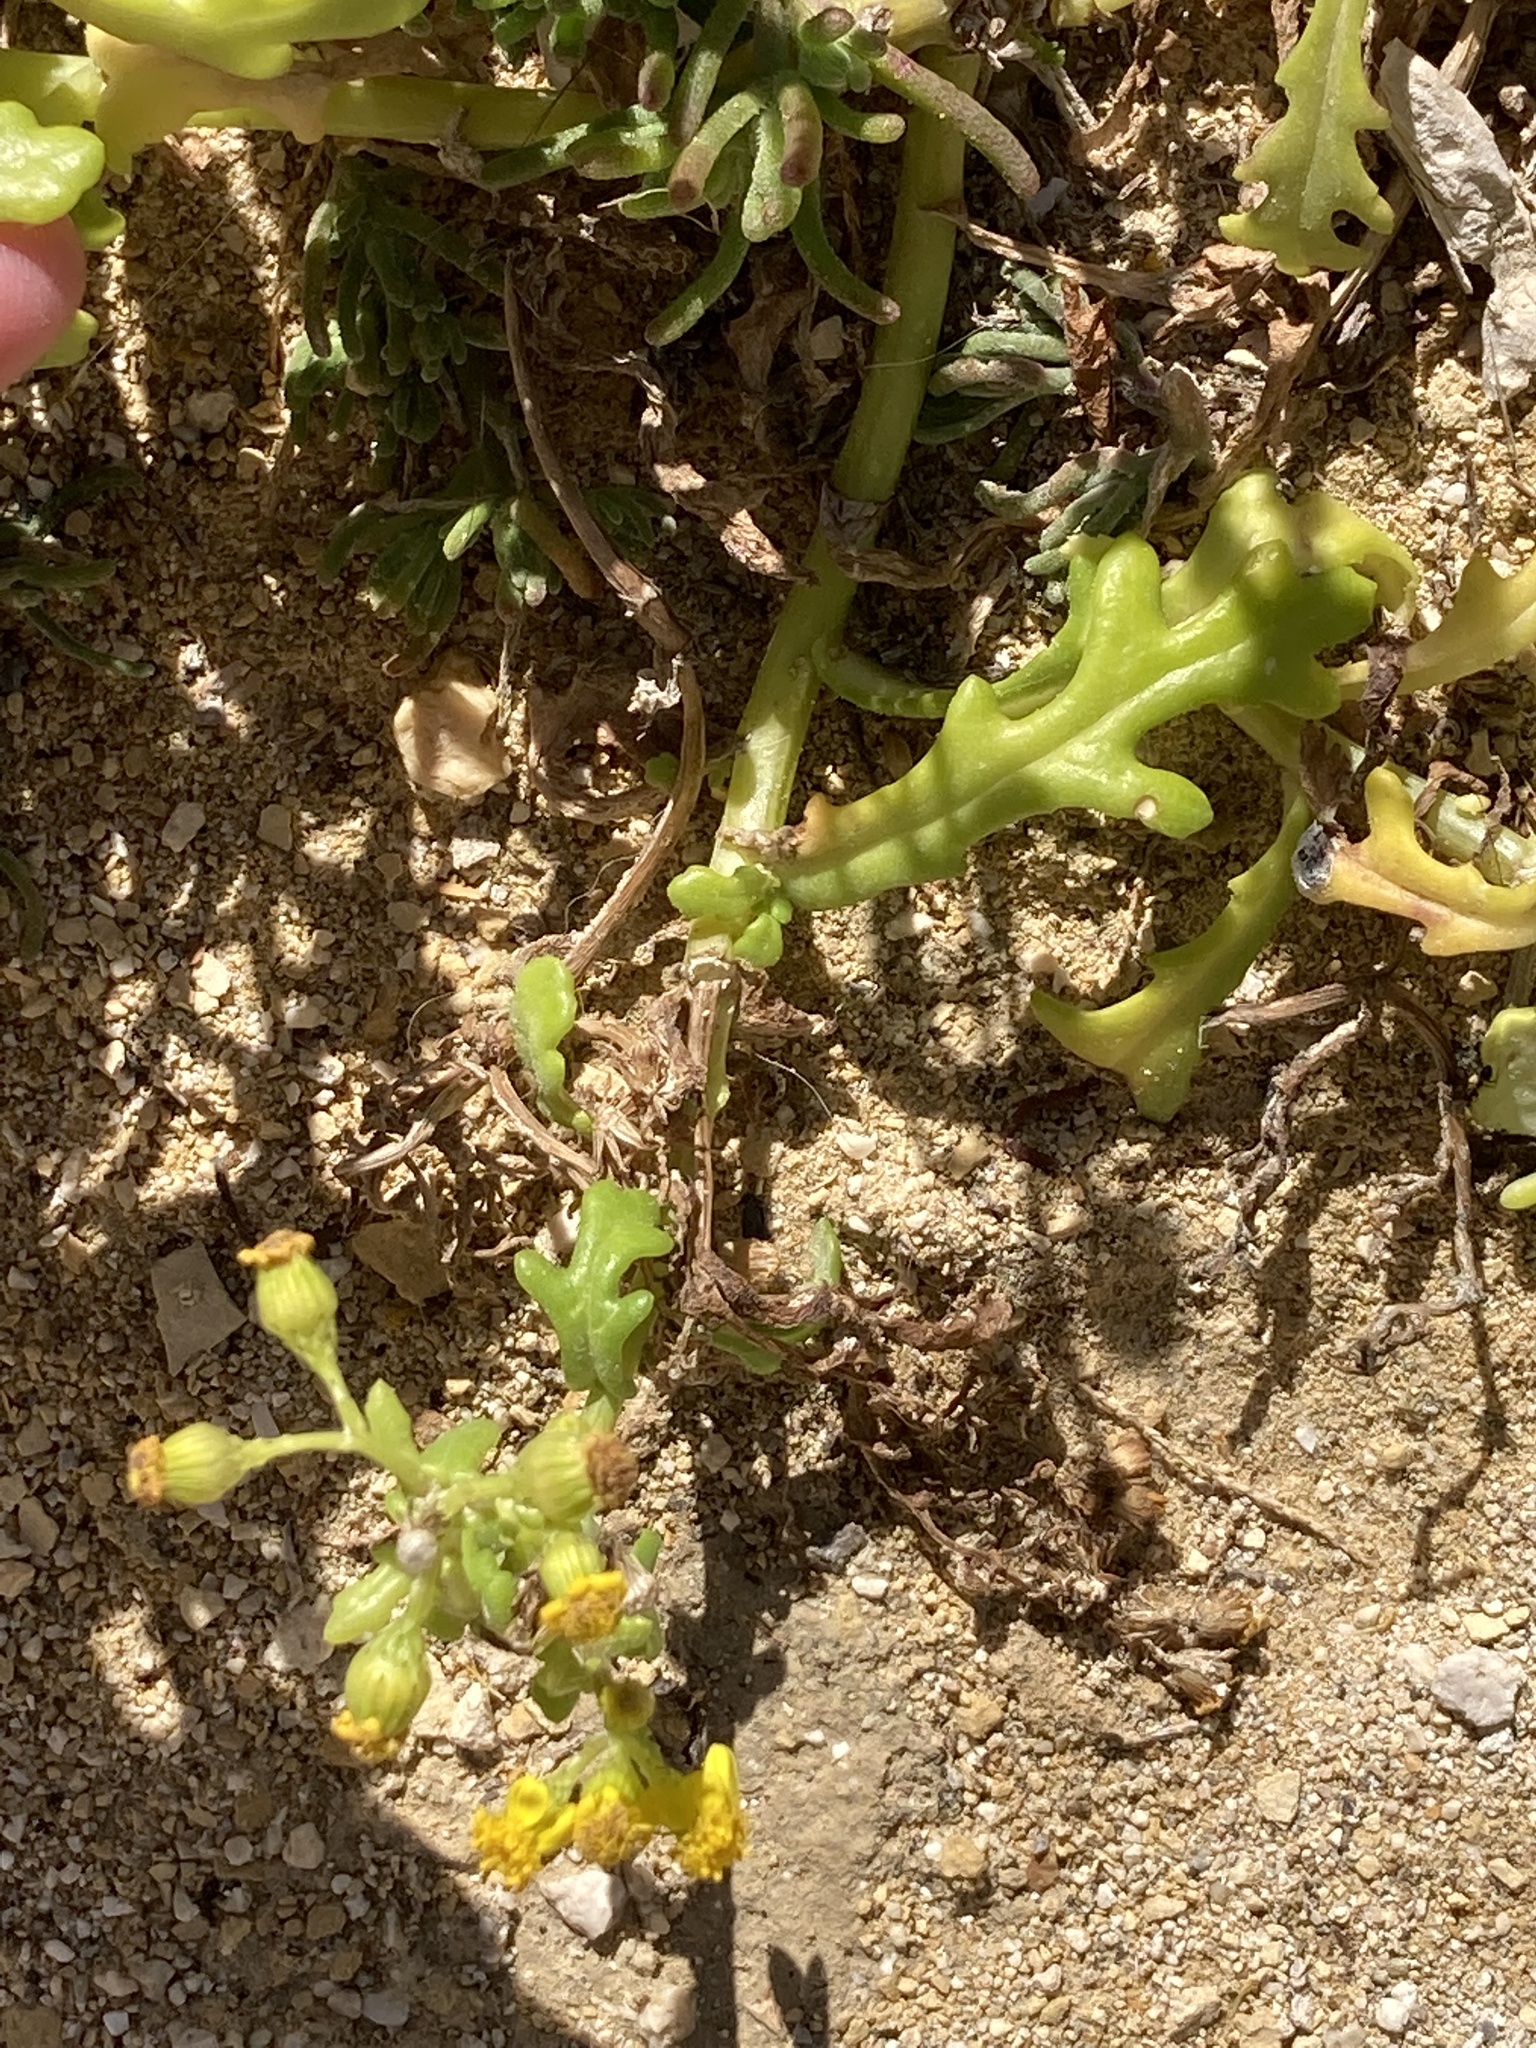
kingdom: Plantae
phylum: Tracheophyta
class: Magnoliopsida
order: Asterales
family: Asteraceae
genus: Senecio
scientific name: Senecio leucanthemifolius
